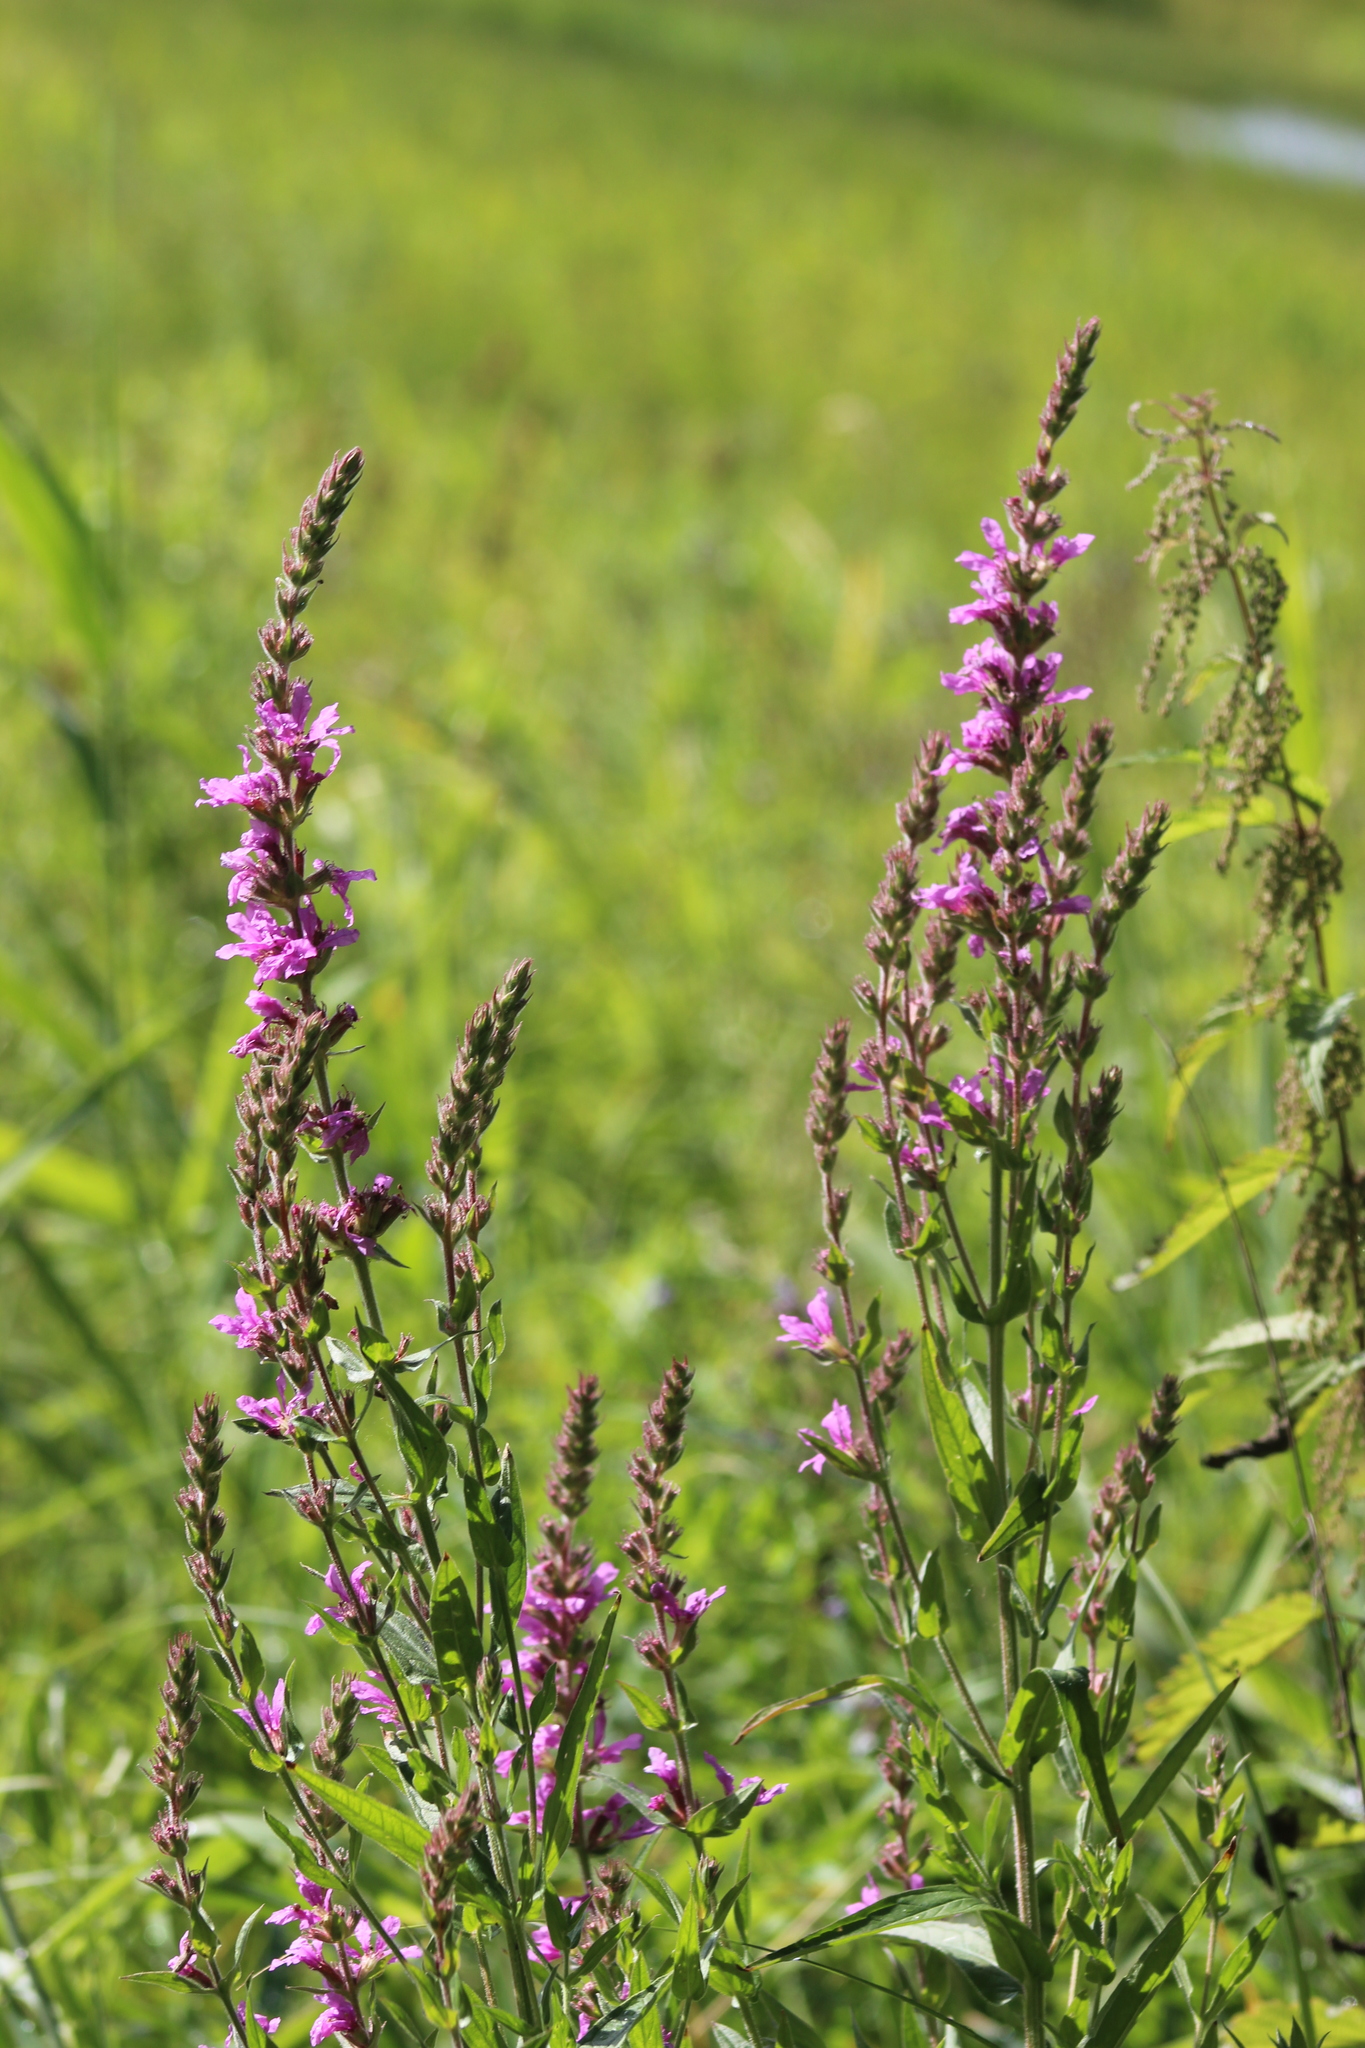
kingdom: Plantae
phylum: Tracheophyta
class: Magnoliopsida
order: Myrtales
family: Lythraceae
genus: Lythrum
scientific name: Lythrum salicaria
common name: Purple loosestrife
